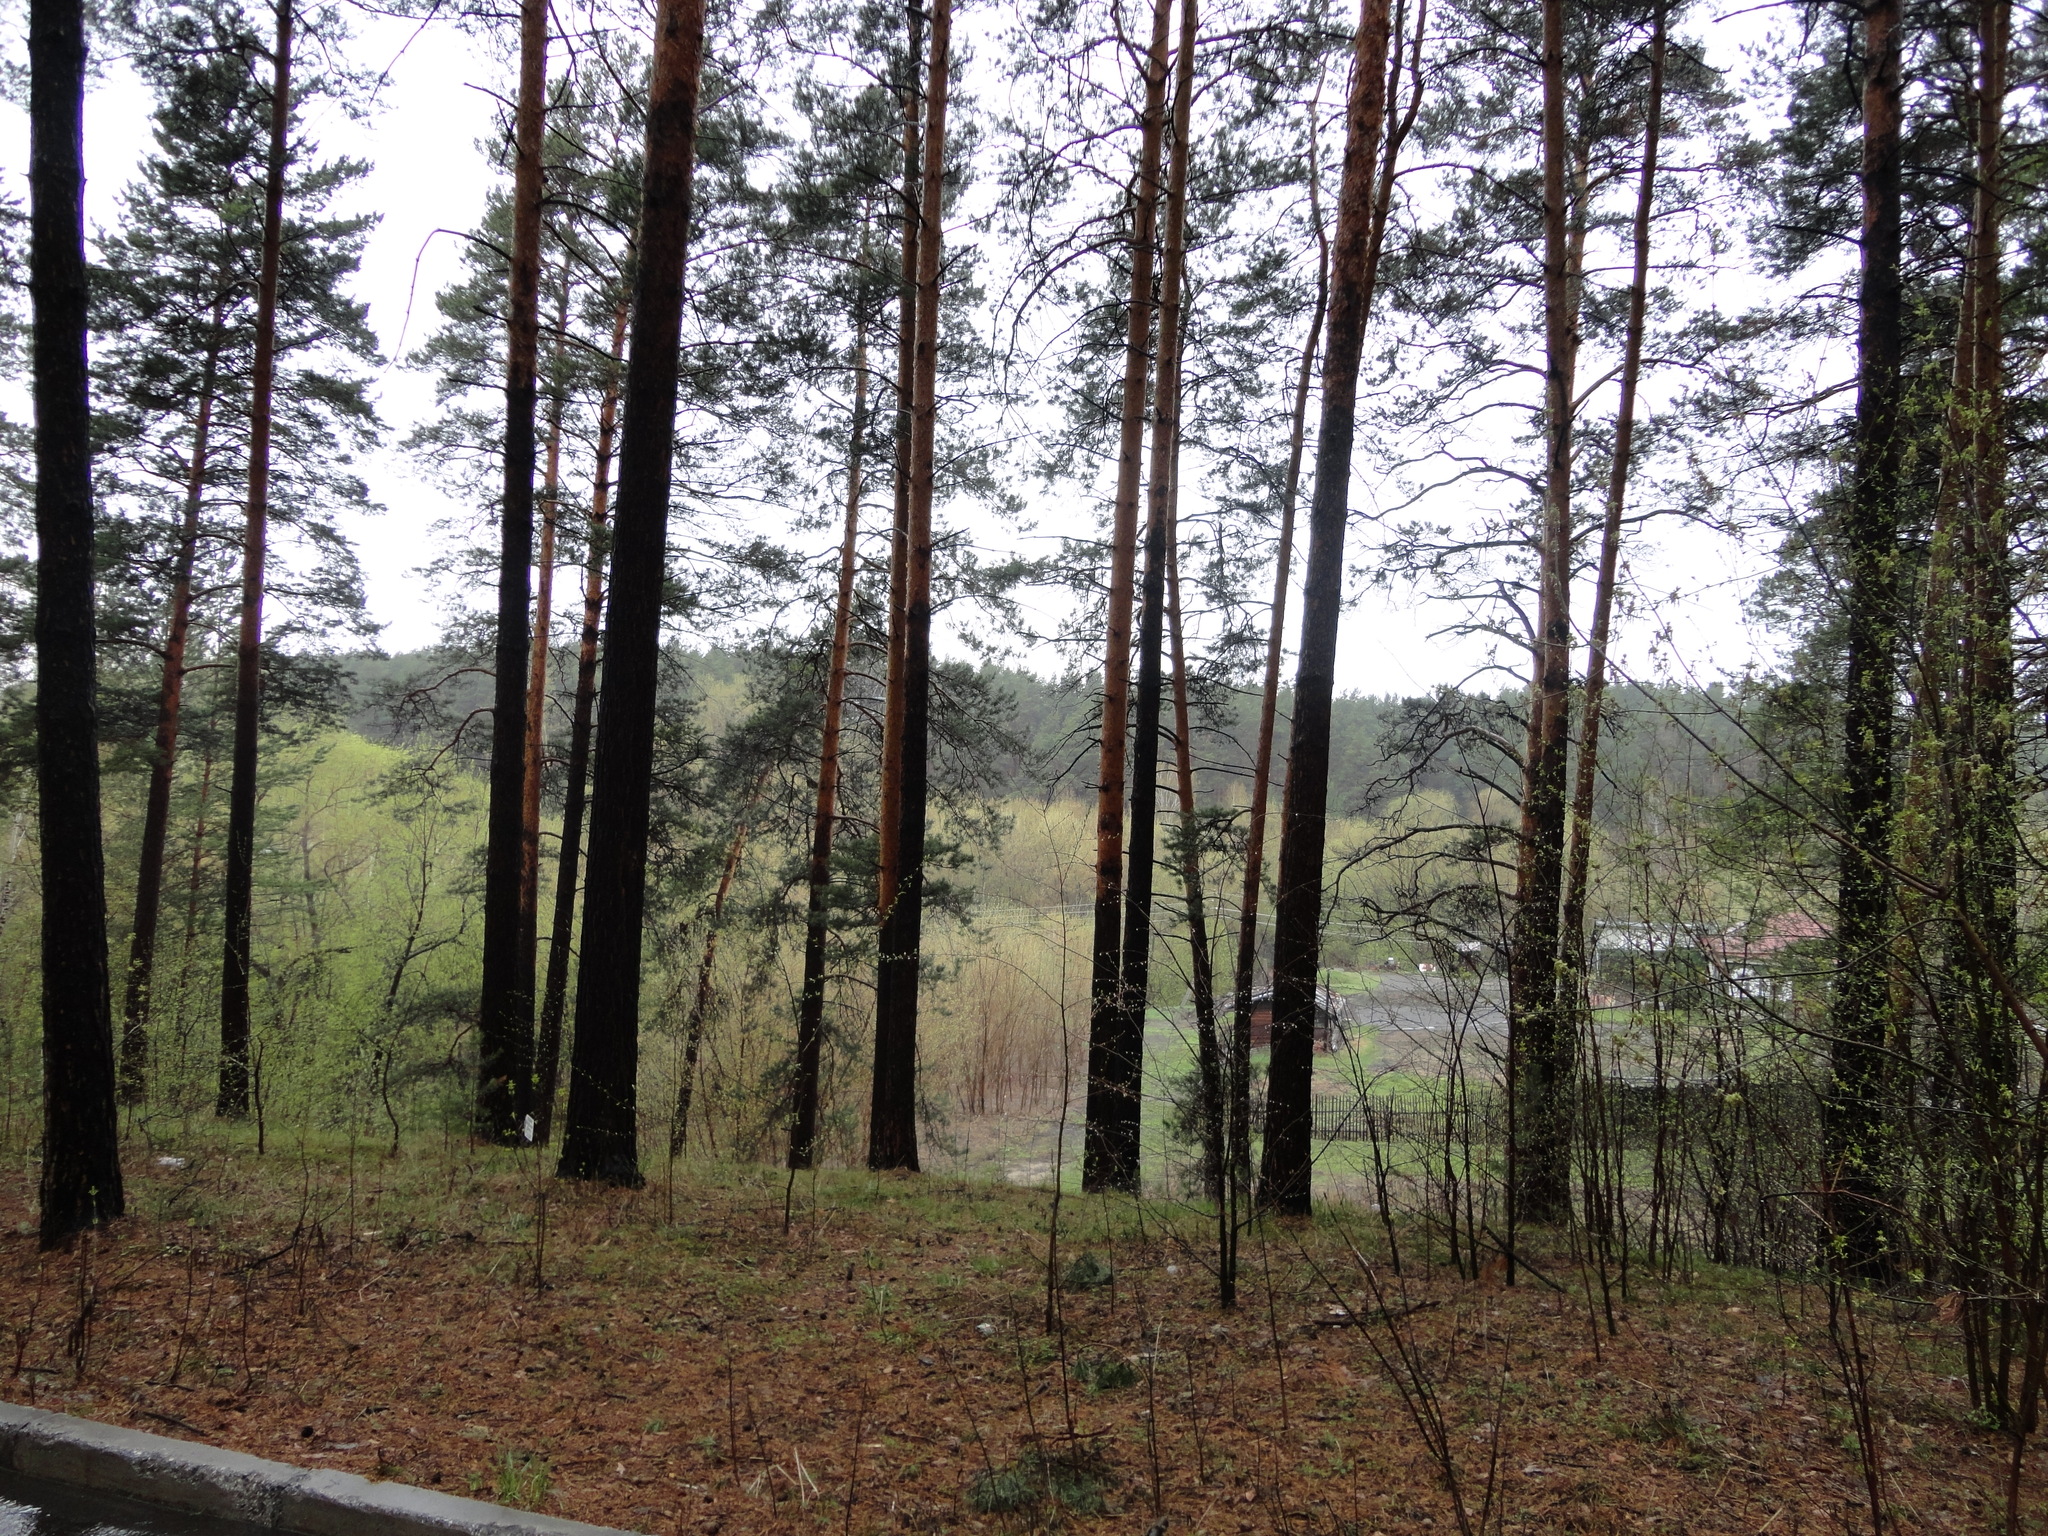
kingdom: Plantae
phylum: Tracheophyta
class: Pinopsida
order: Pinales
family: Pinaceae
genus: Pinus
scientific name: Pinus sylvestris
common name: Scots pine
